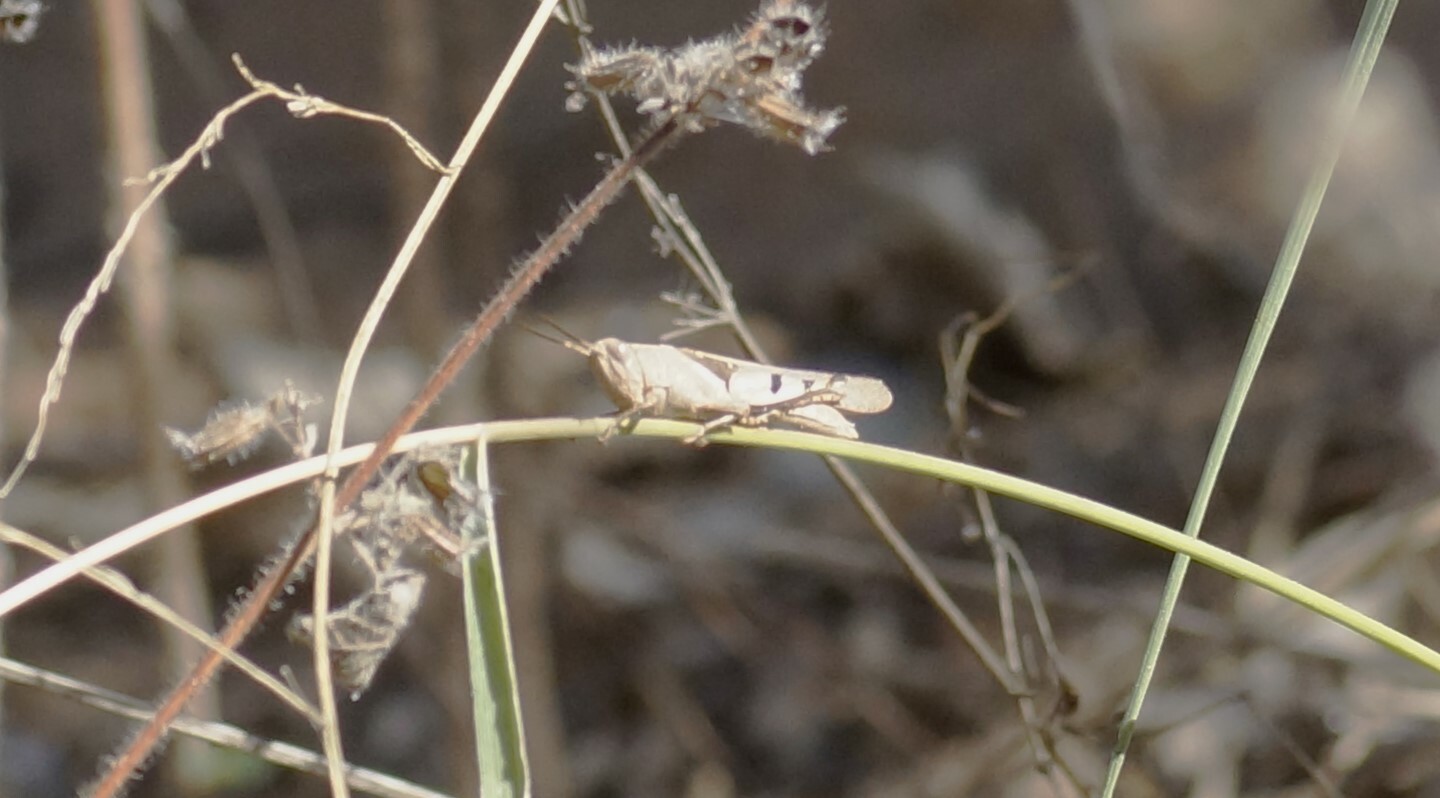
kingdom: Animalia
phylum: Arthropoda
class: Insecta
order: Orthoptera
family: Acrididae
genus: Stenocatantops
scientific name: Stenocatantops angustifrons
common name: Common tropical sharptail
